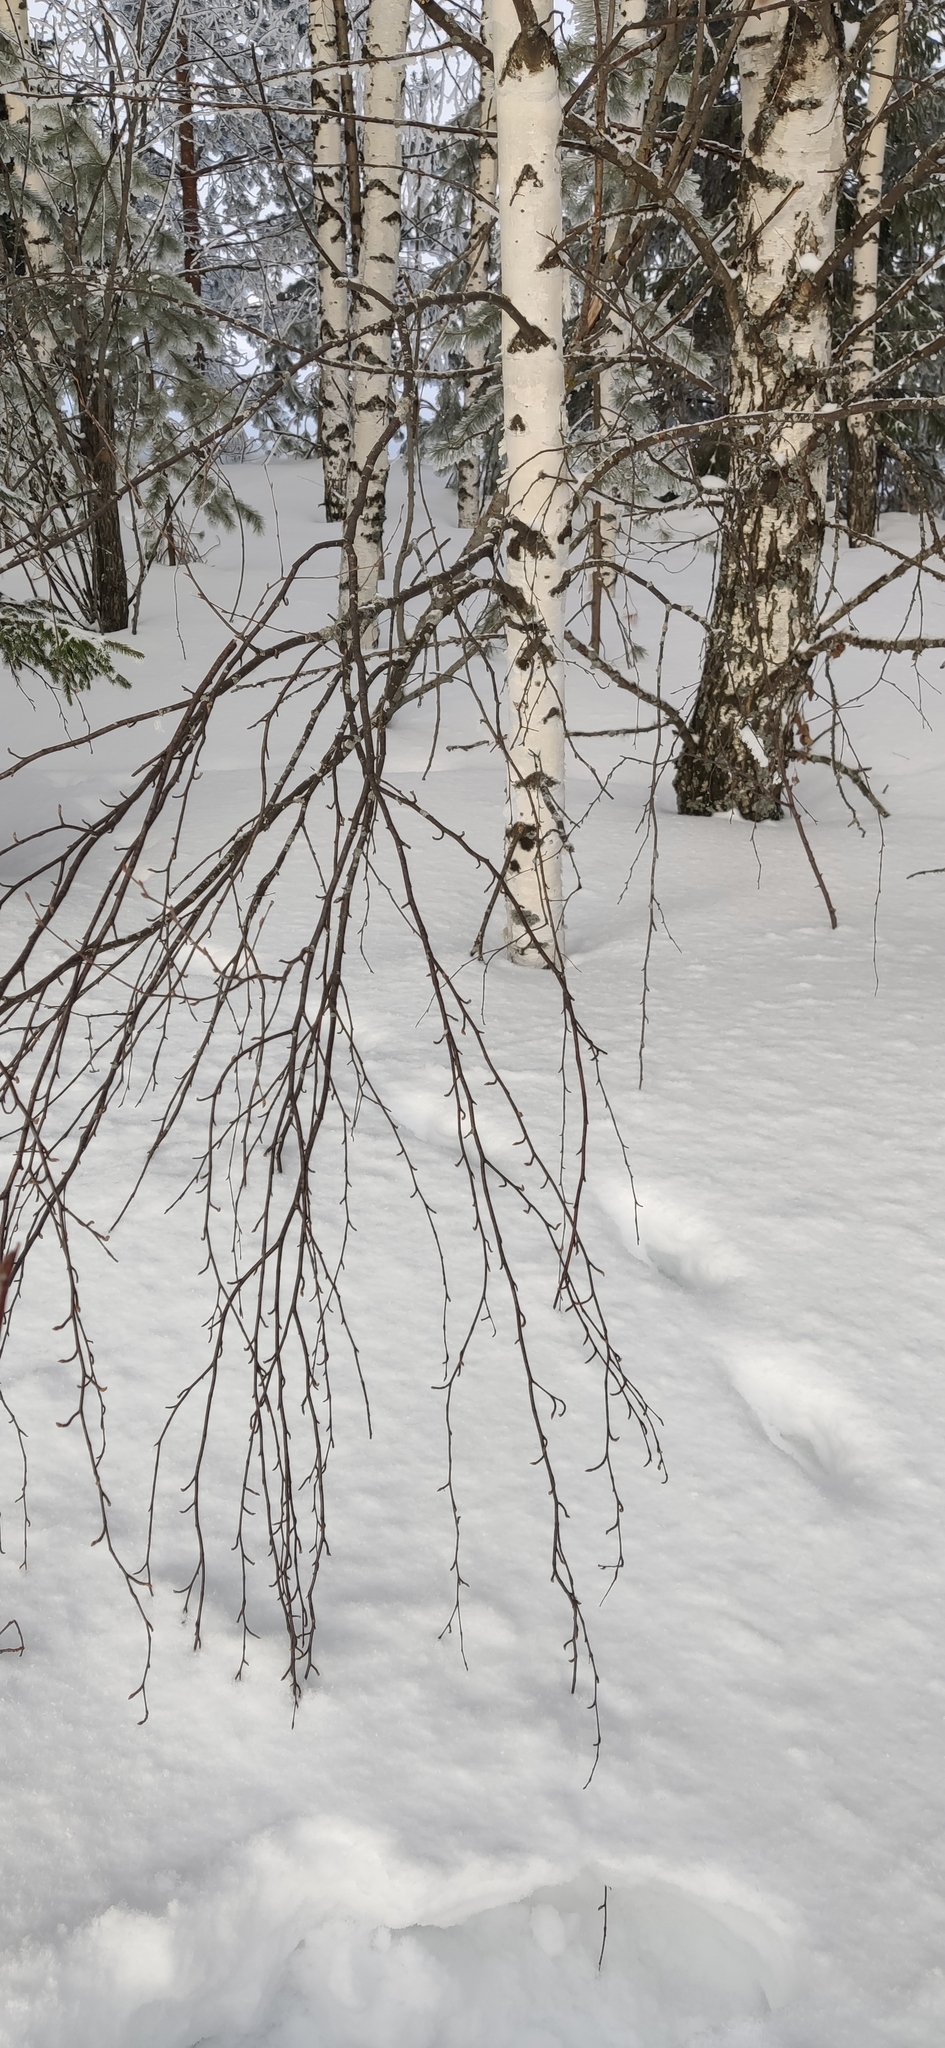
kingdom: Animalia
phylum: Chordata
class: Mammalia
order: Carnivora
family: Mustelidae
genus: Martes
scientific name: Martes martes
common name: European pine marten
